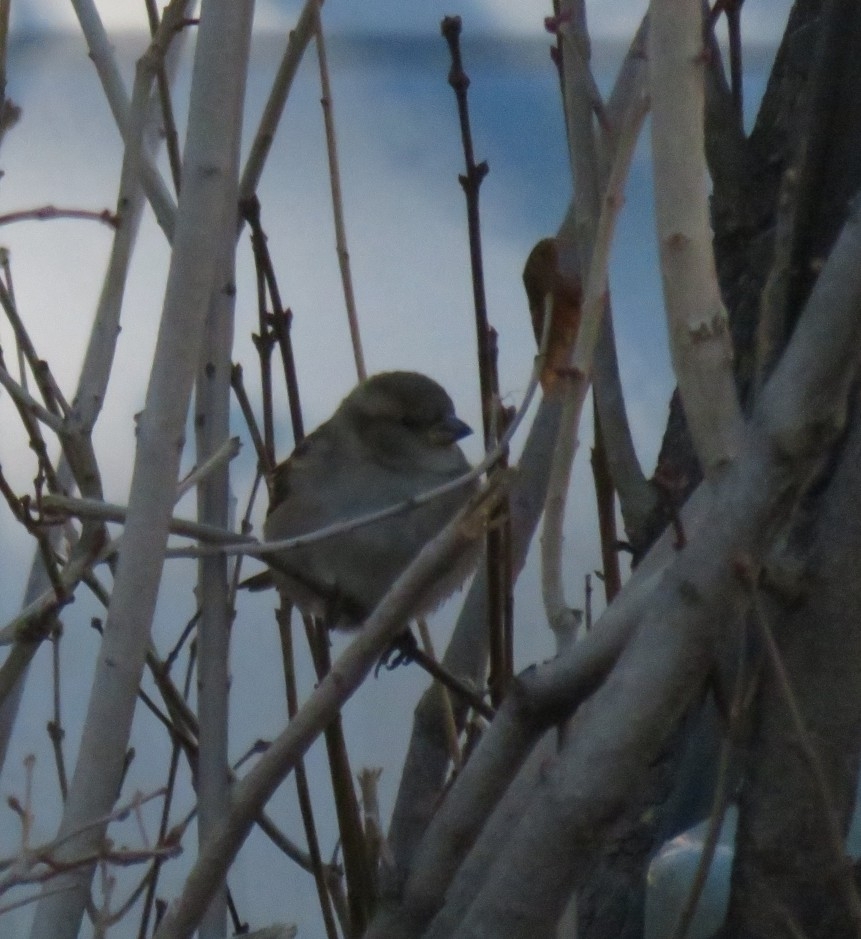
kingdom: Animalia
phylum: Chordata
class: Aves
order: Passeriformes
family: Passeridae
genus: Passer
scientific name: Passer domesticus
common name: House sparrow
